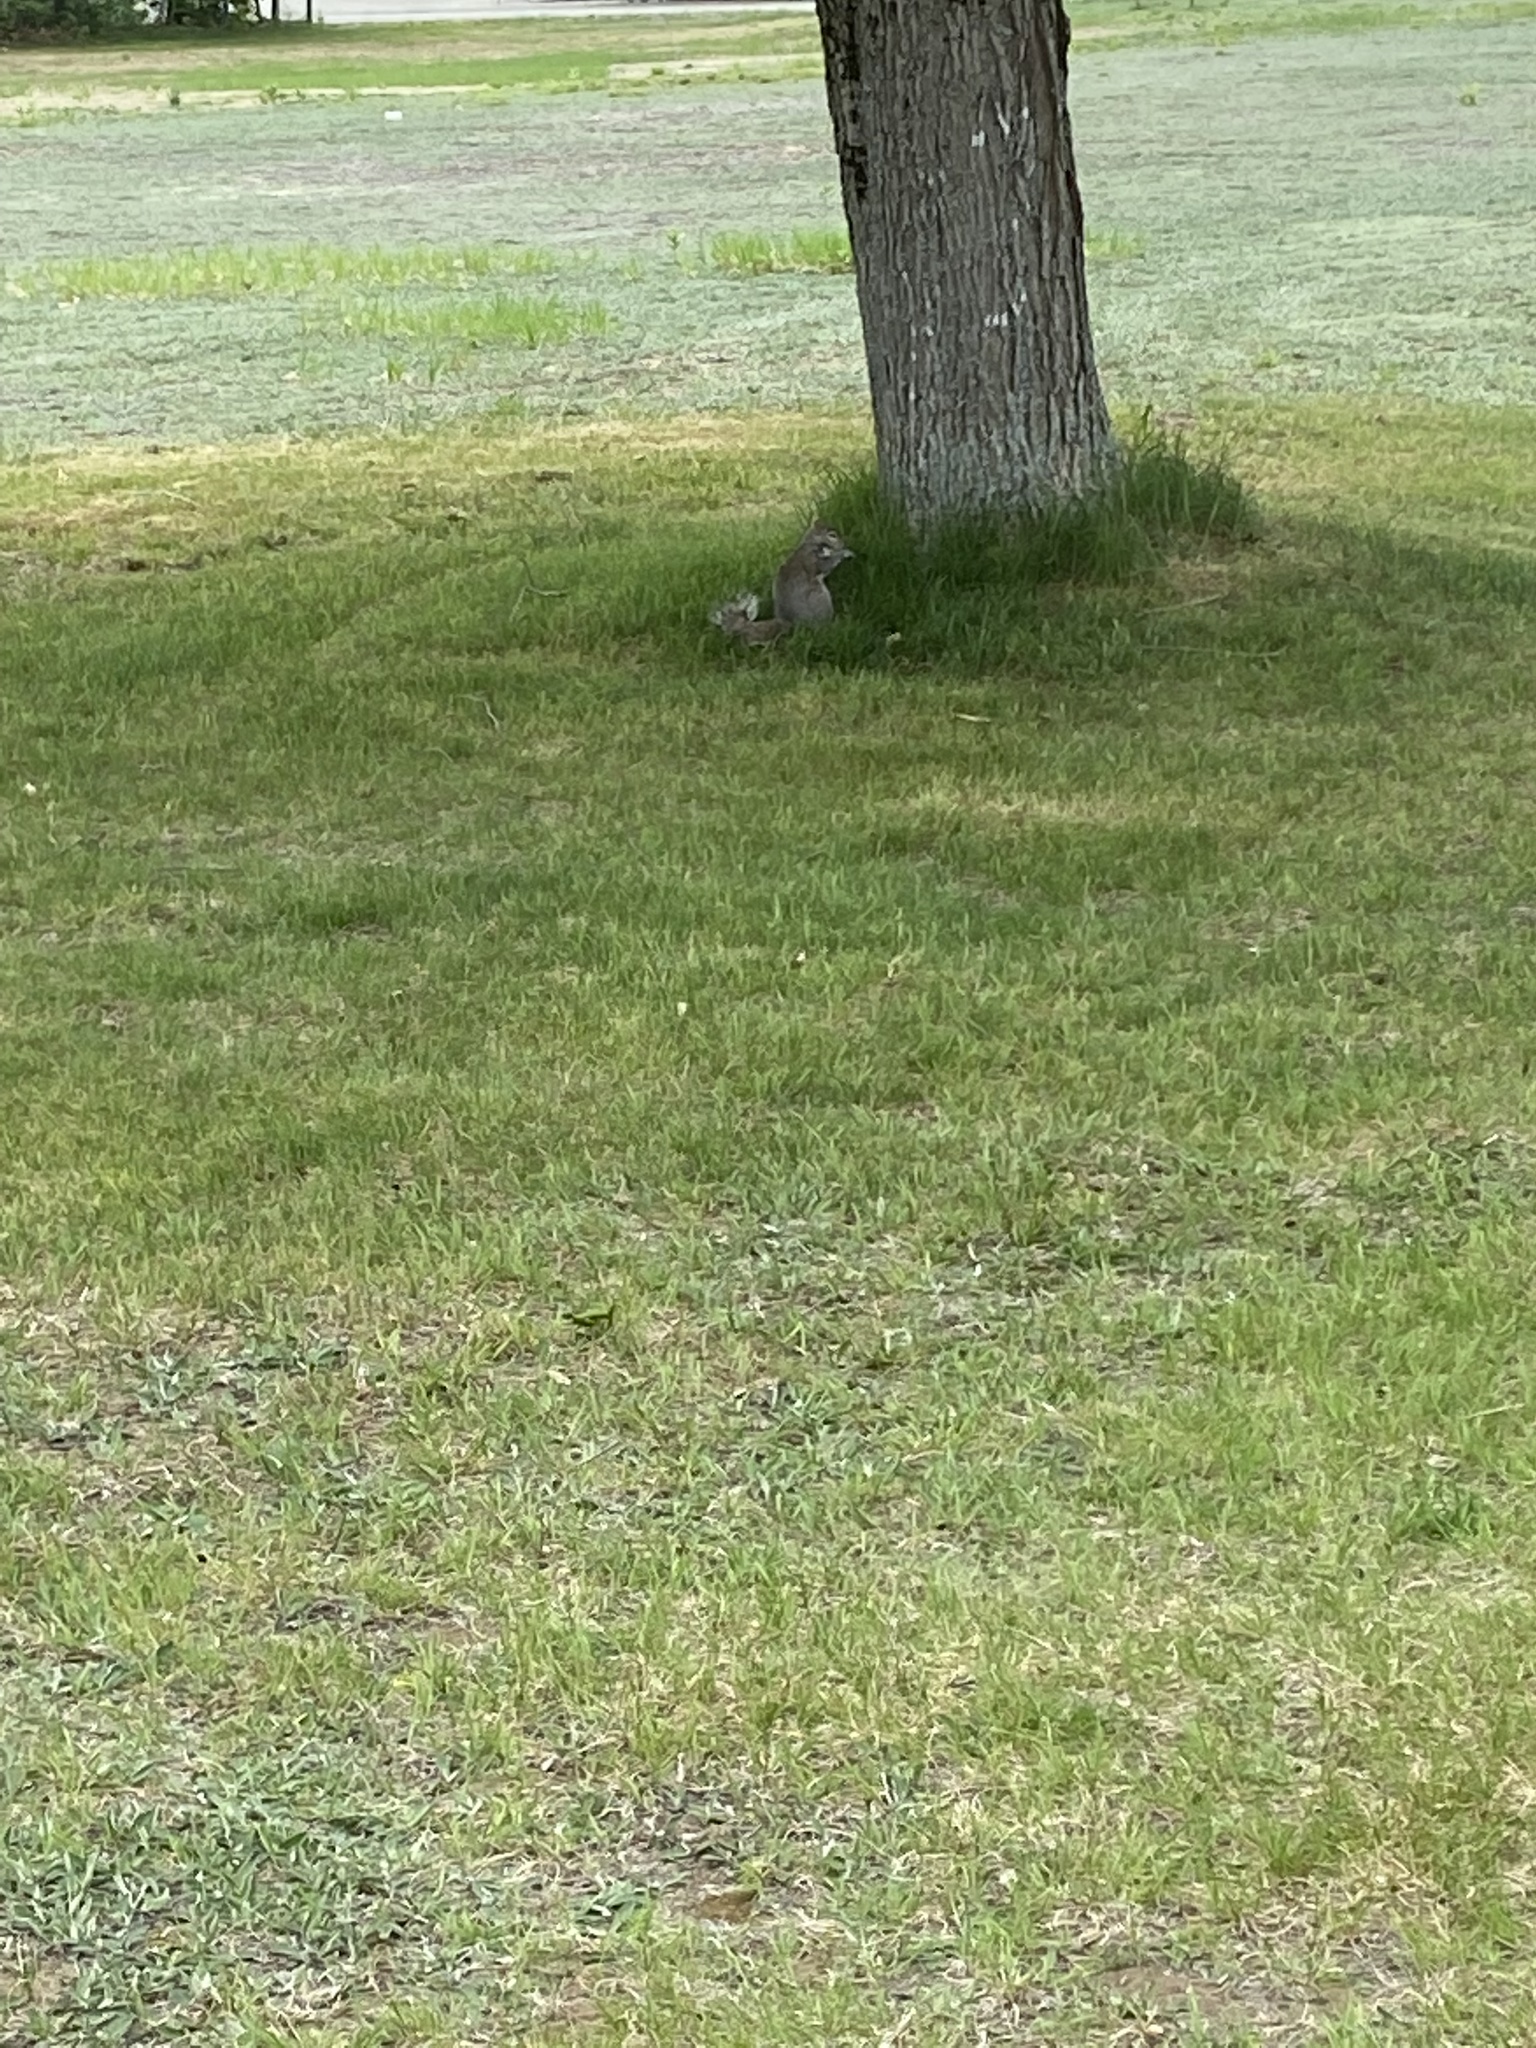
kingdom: Animalia
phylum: Chordata
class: Mammalia
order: Rodentia
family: Sciuridae
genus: Sciurus
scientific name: Sciurus carolinensis
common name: Eastern gray squirrel
